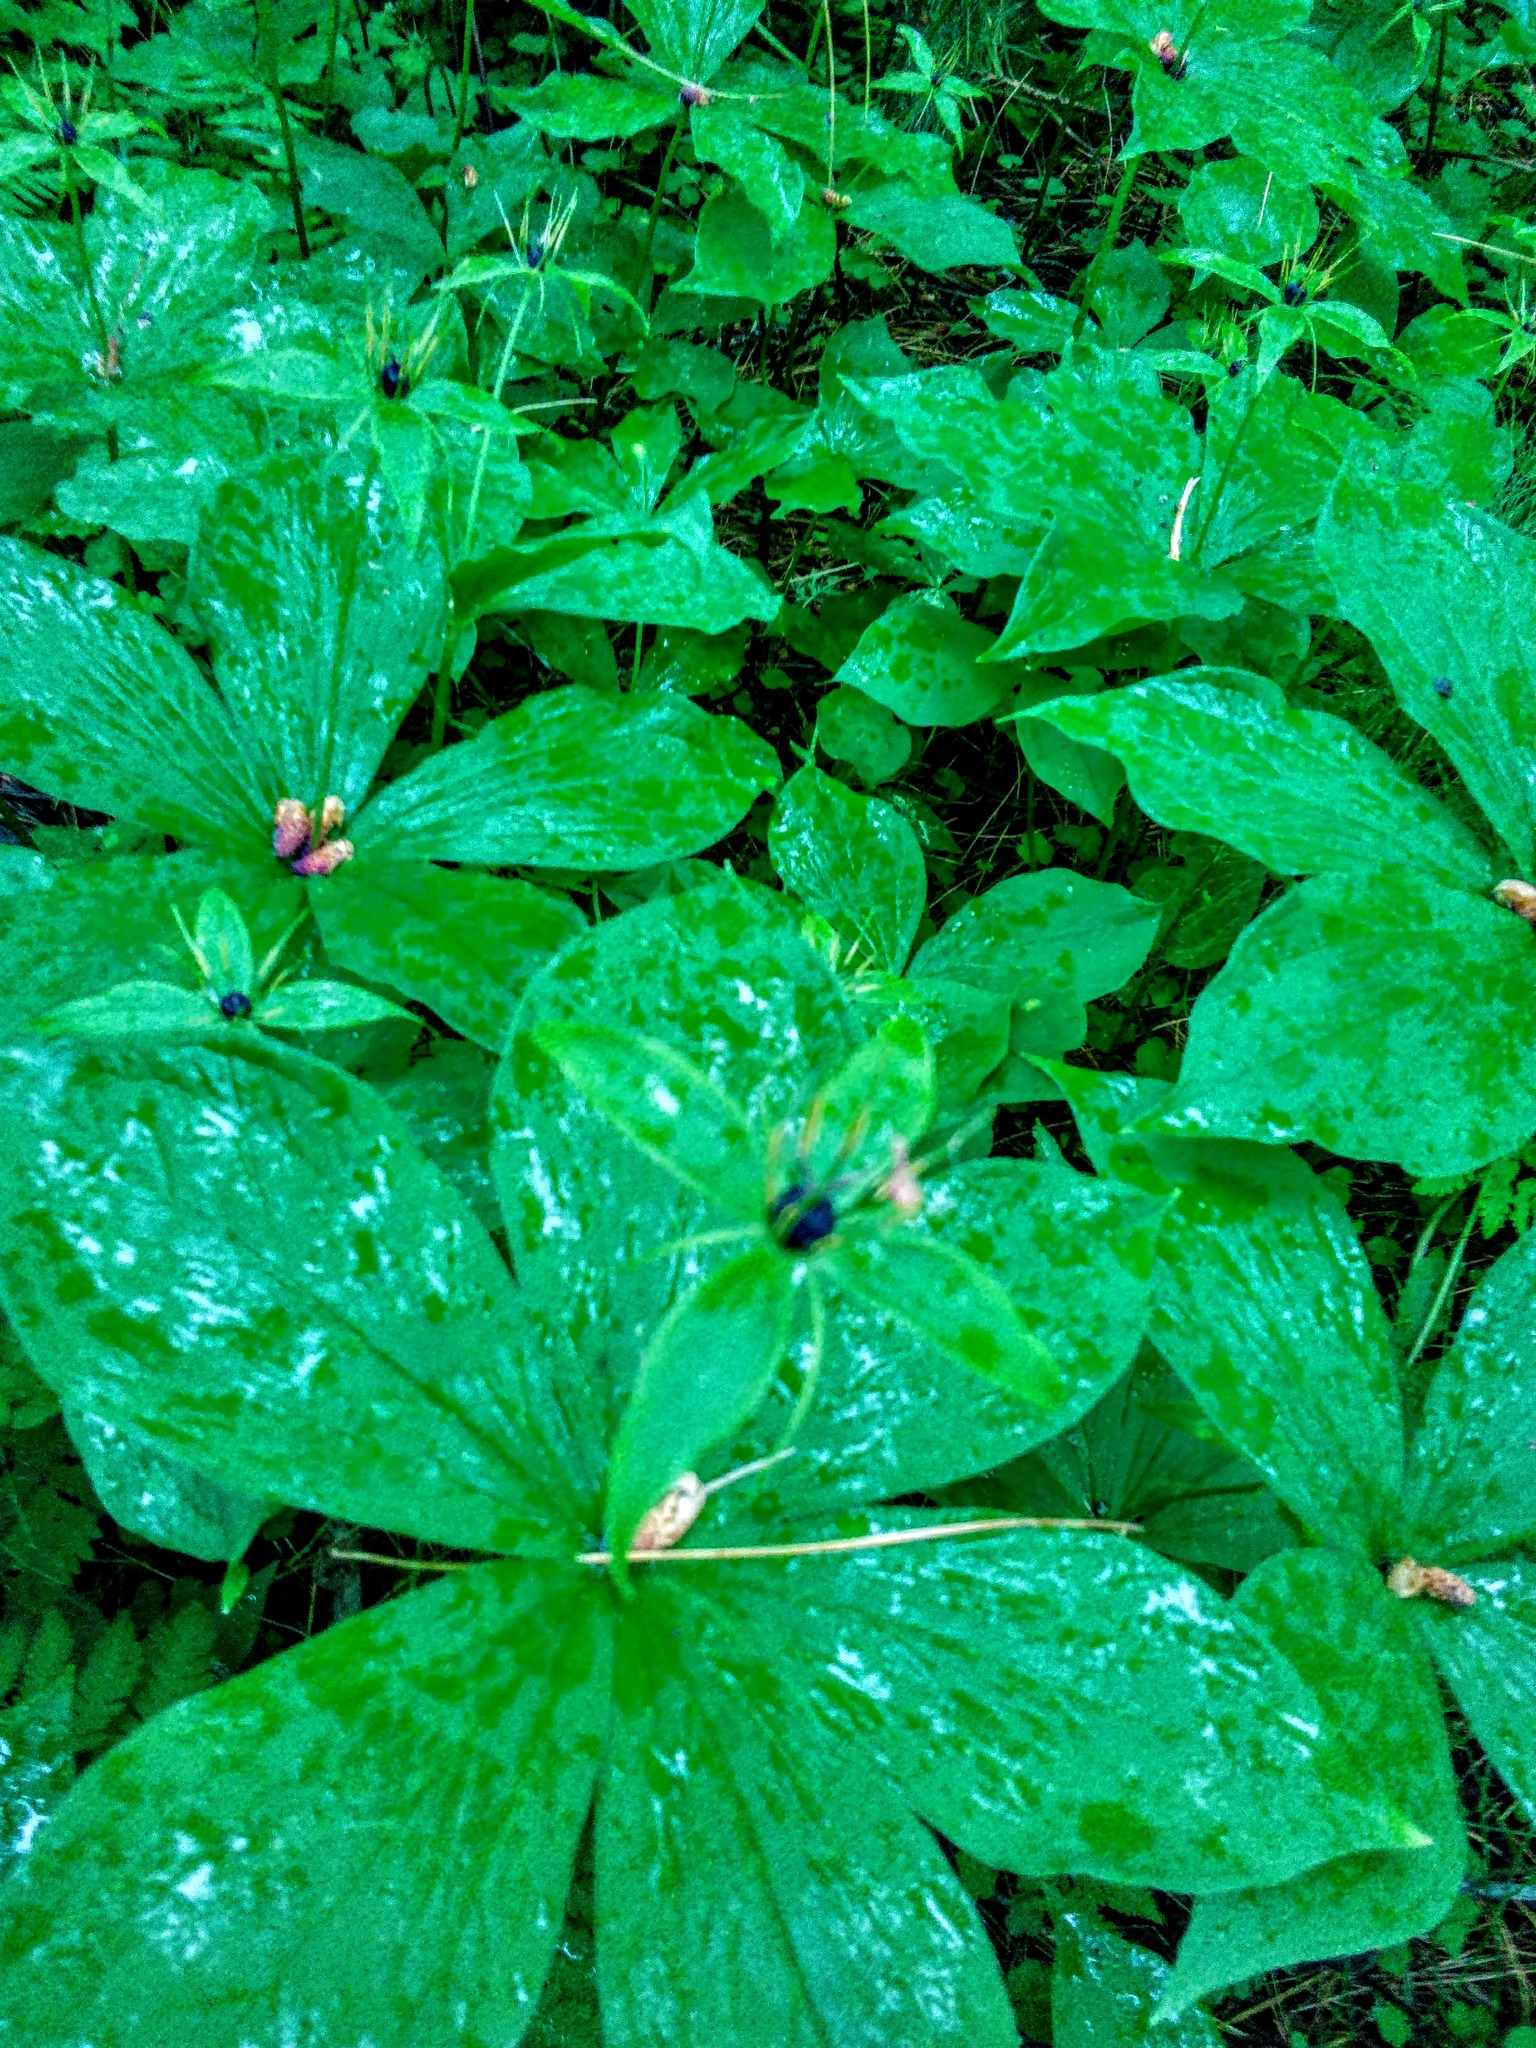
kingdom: Plantae
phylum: Tracheophyta
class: Liliopsida
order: Liliales
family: Melanthiaceae
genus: Paris
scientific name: Paris quadrifolia
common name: Herb-paris
